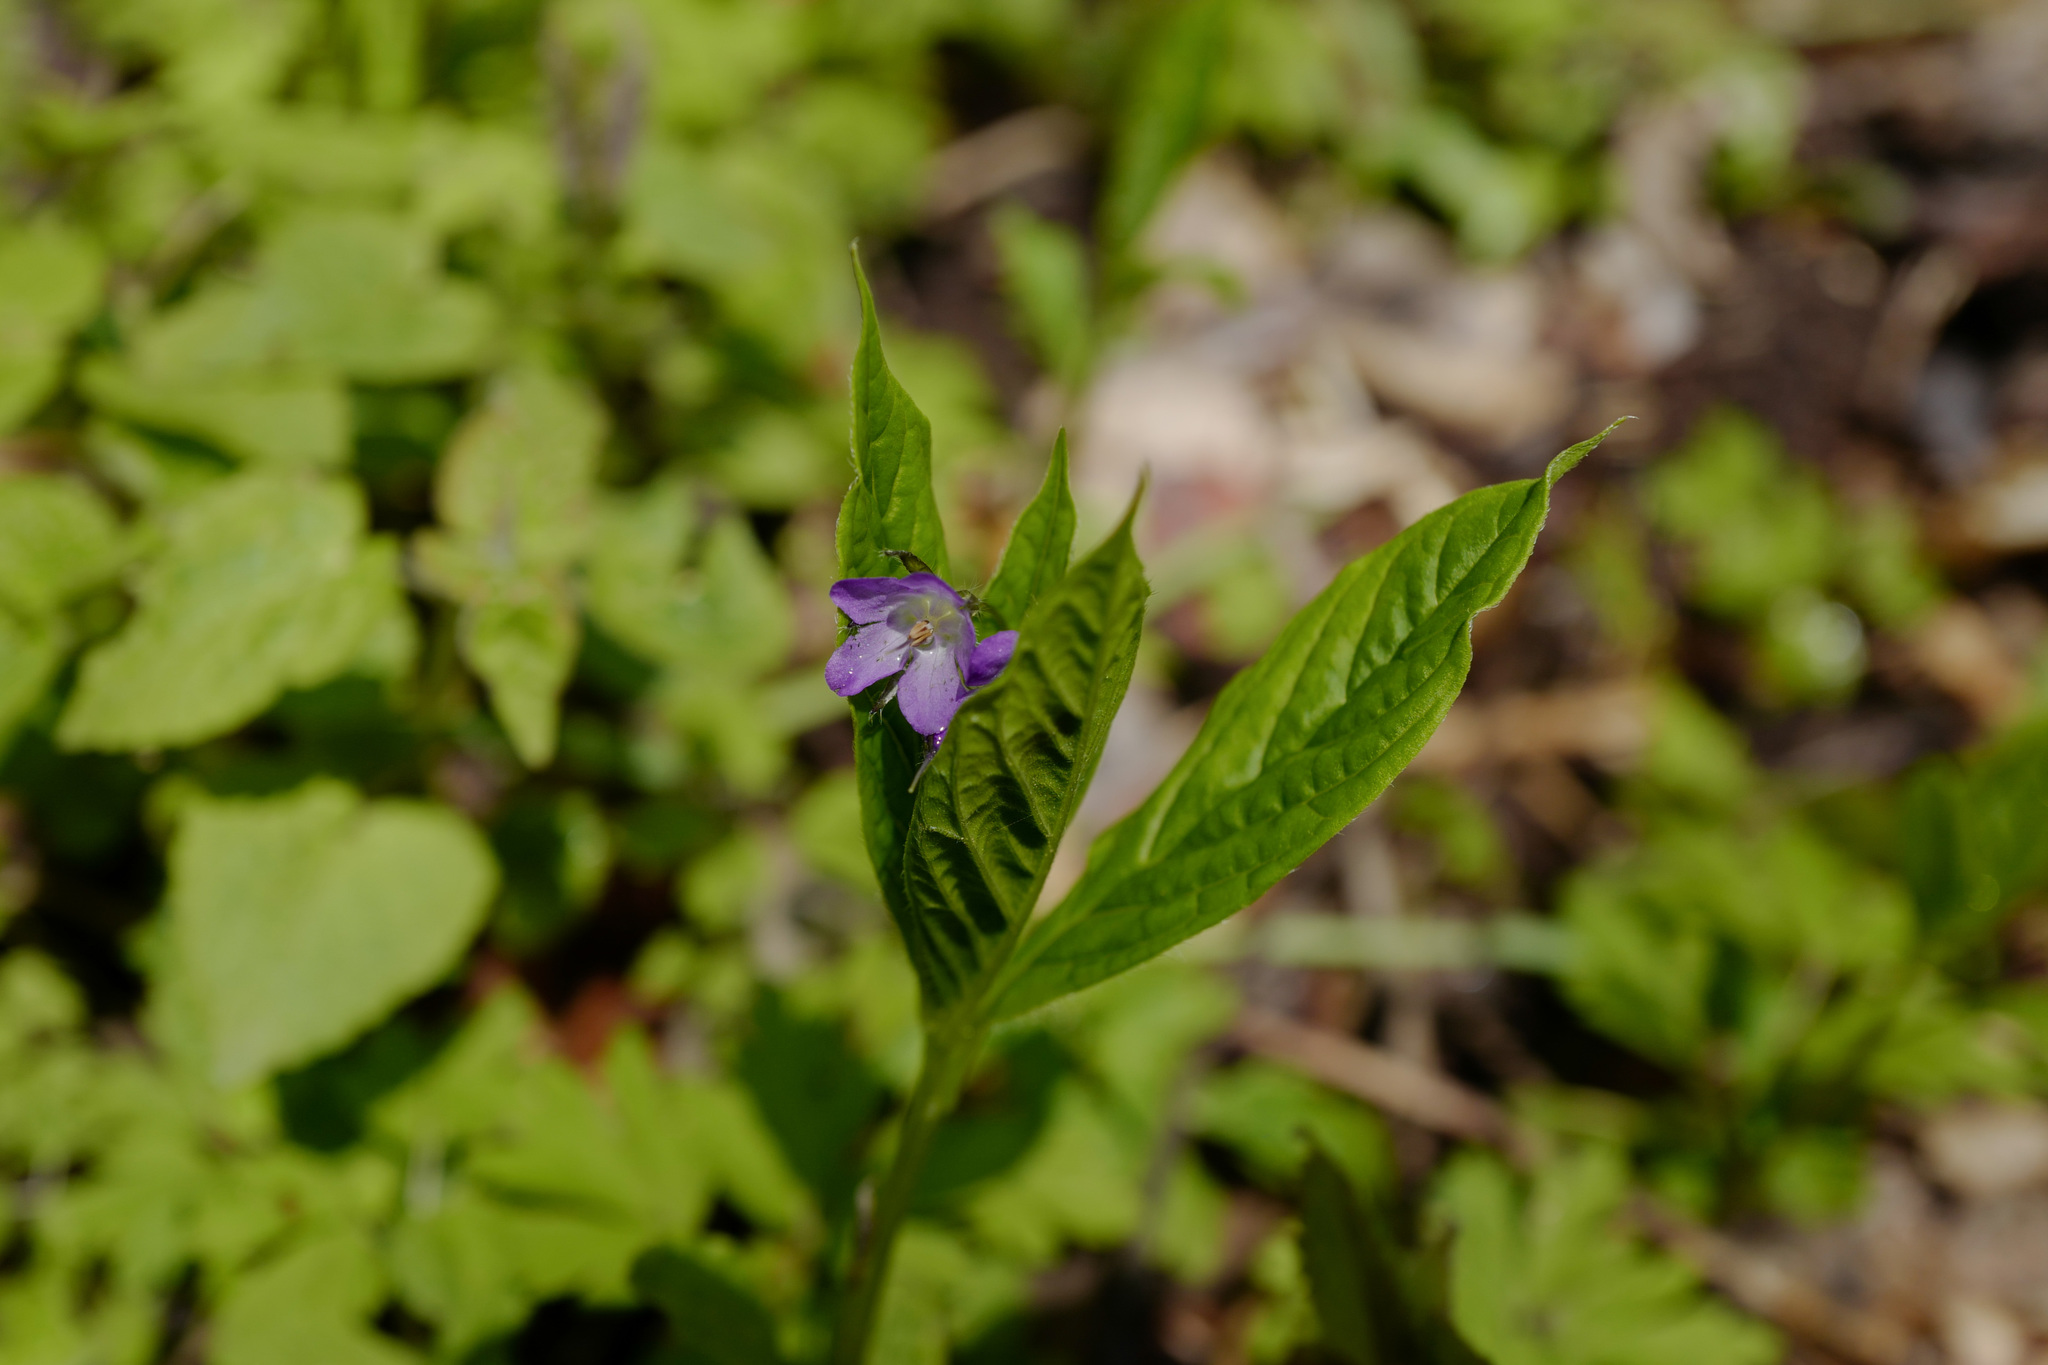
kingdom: Plantae
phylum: Tracheophyta
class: Magnoliopsida
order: Boraginales
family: Boraginaceae
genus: Brachybotrys
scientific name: Brachybotrys paridiformis
